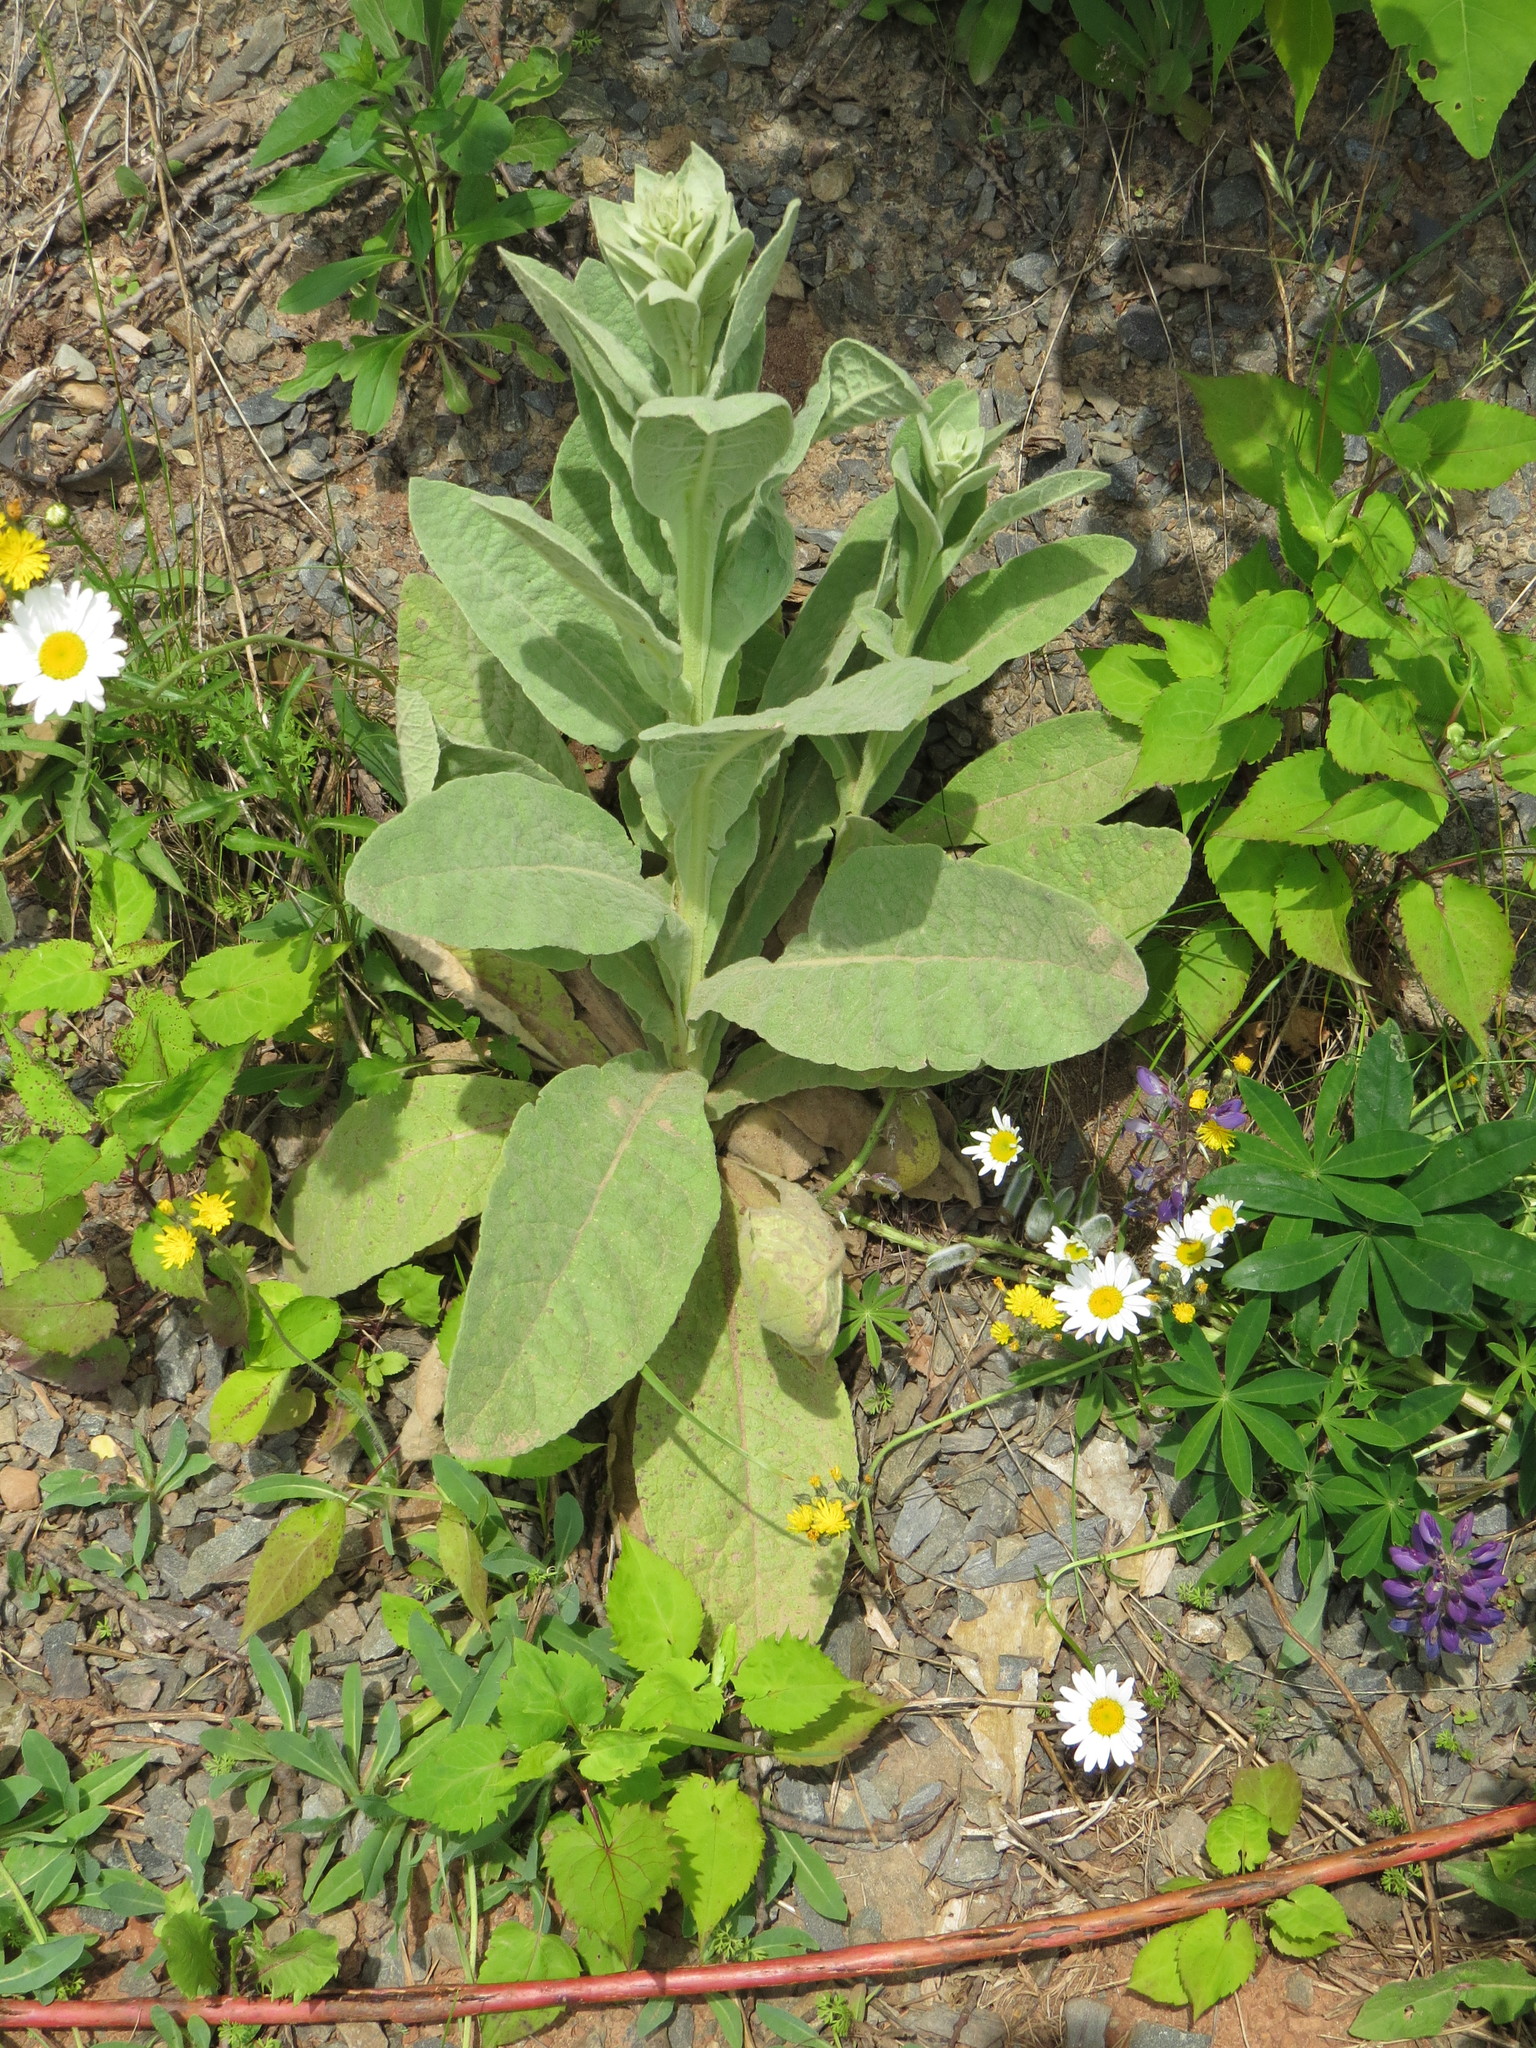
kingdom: Plantae
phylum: Tracheophyta
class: Magnoliopsida
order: Lamiales
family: Scrophulariaceae
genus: Verbascum
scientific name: Verbascum thapsus
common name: Common mullein
